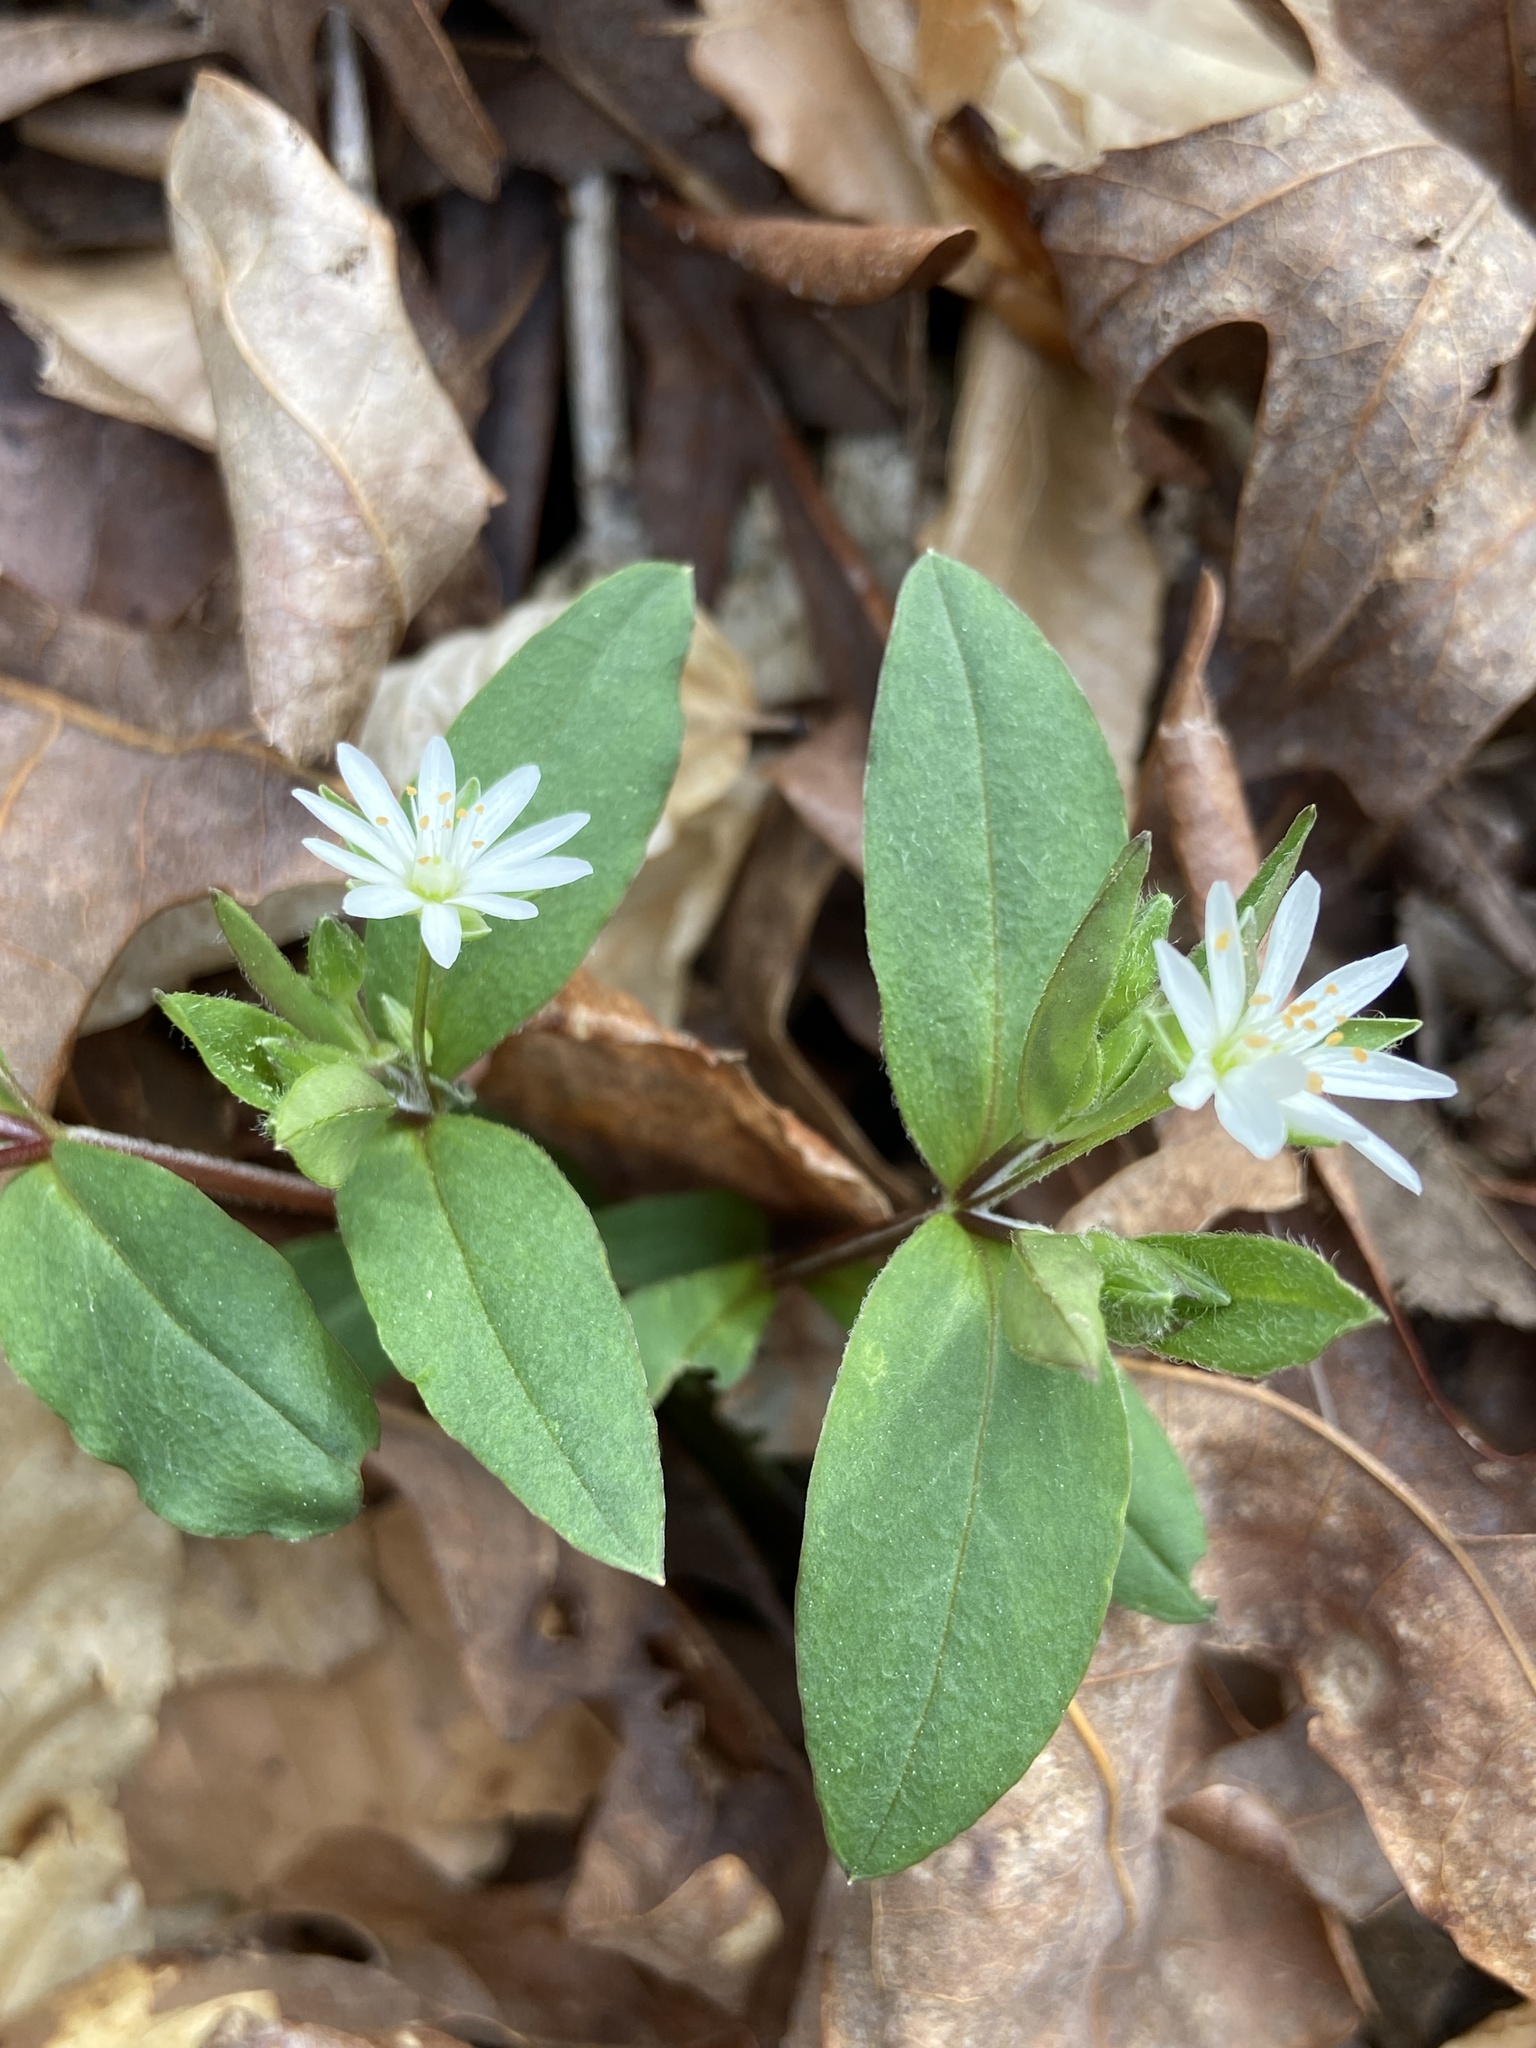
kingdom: Plantae
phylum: Tracheophyta
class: Magnoliopsida
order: Caryophyllales
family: Caryophyllaceae
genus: Stellaria
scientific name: Stellaria pubera
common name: Star chickweed
